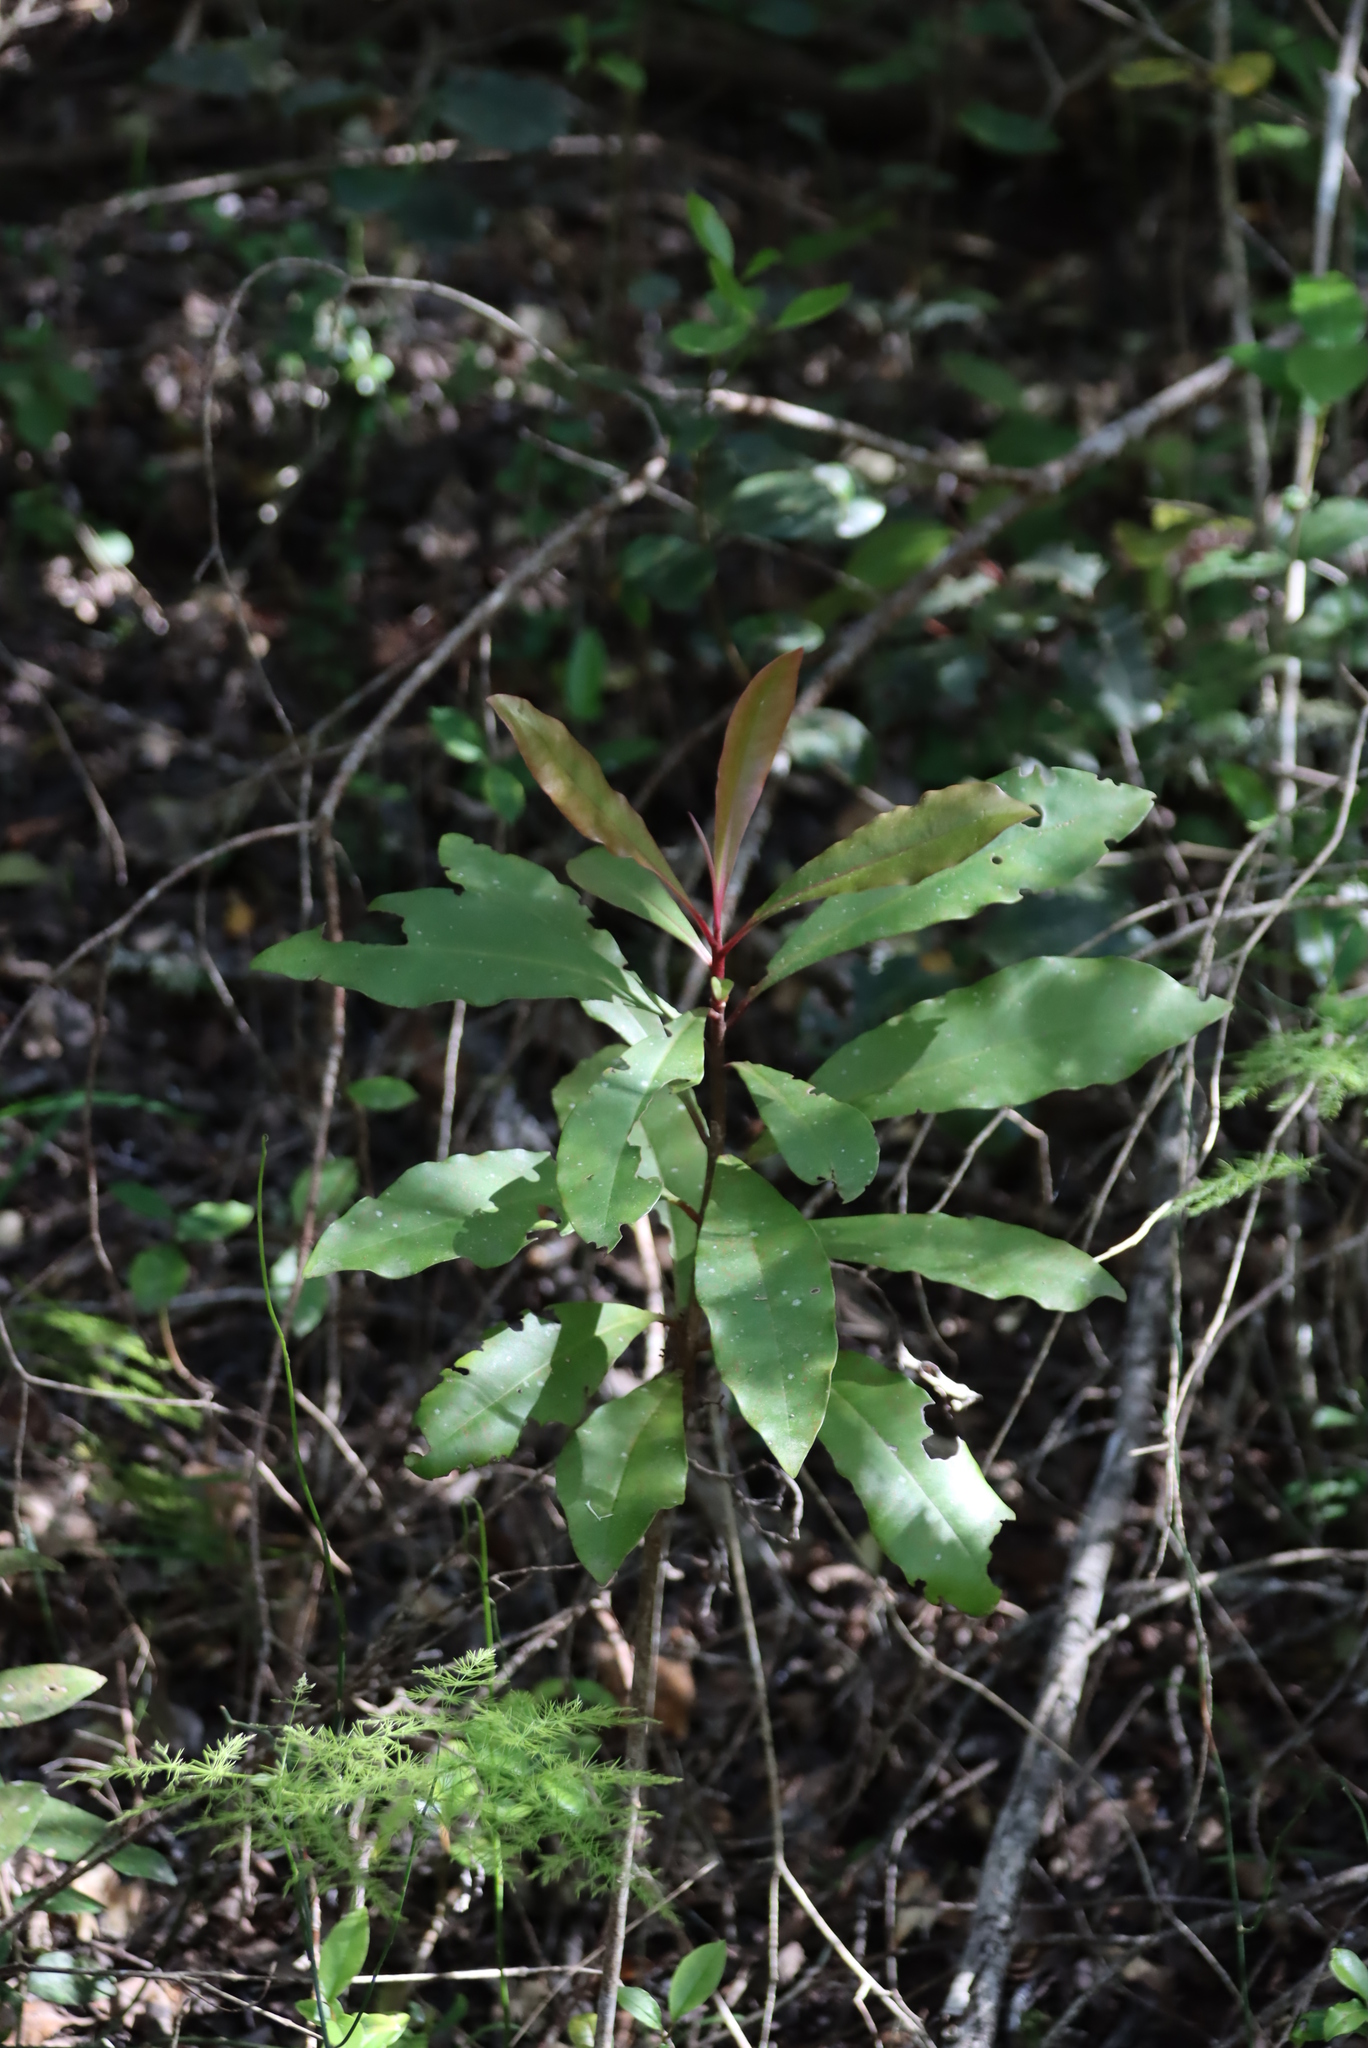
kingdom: Plantae
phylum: Tracheophyta
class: Magnoliopsida
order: Ericales
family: Primulaceae
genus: Myrsine
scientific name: Myrsine melanophloeos
